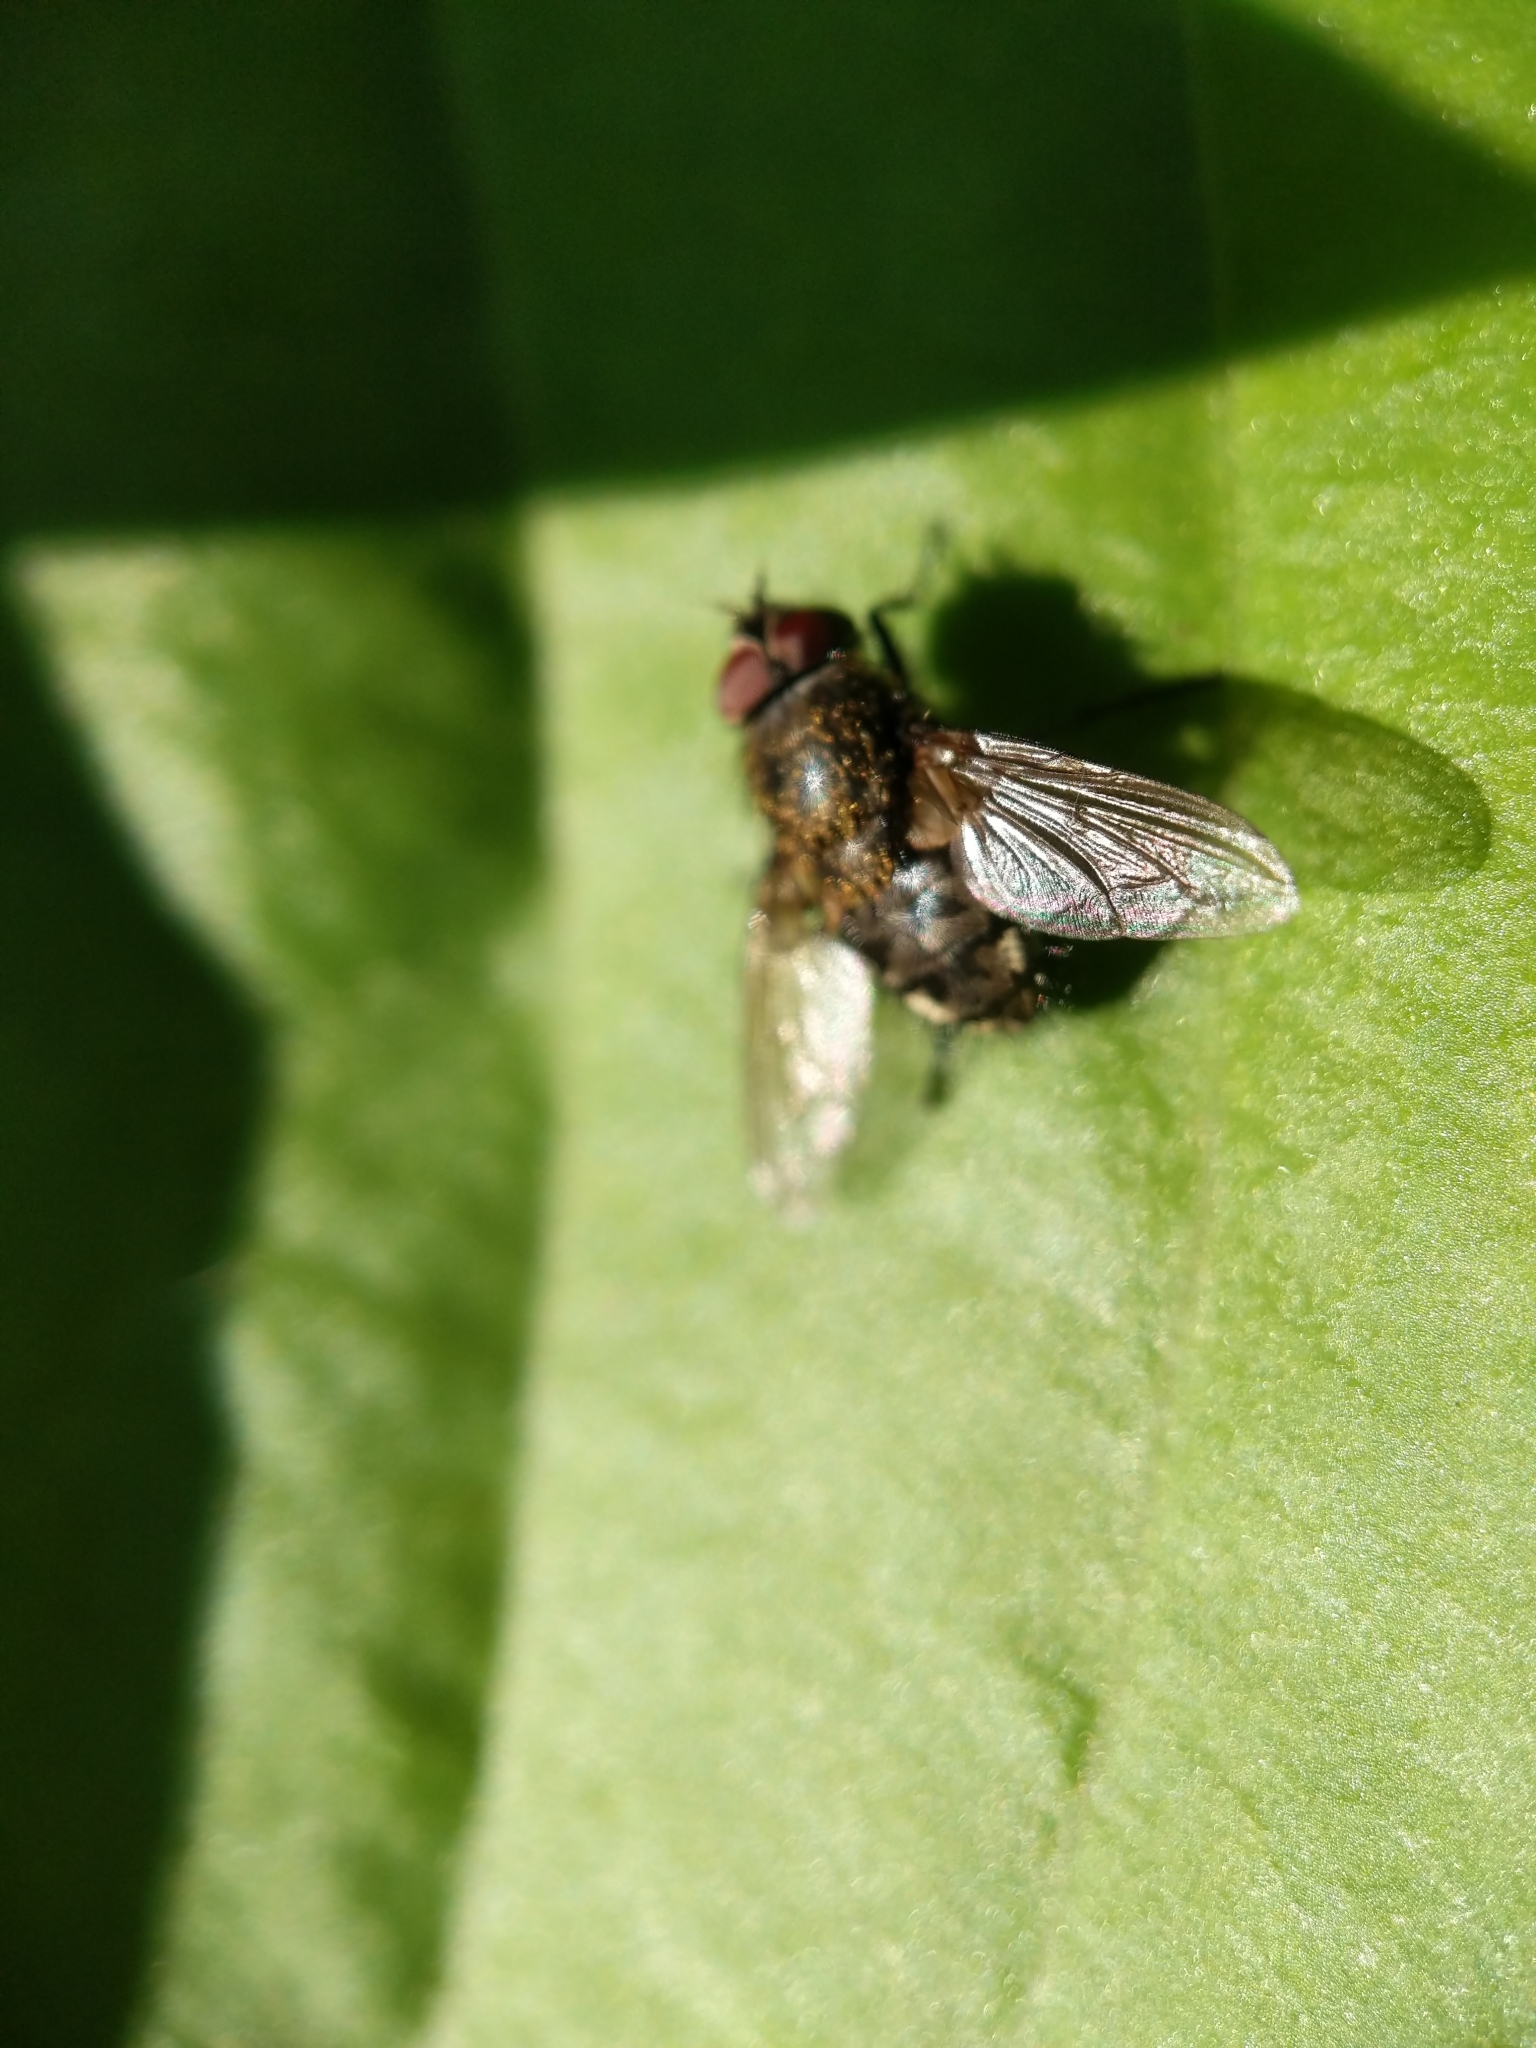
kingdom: Animalia
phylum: Arthropoda
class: Insecta
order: Diptera
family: Polleniidae
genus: Pollenia
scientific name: Pollenia
